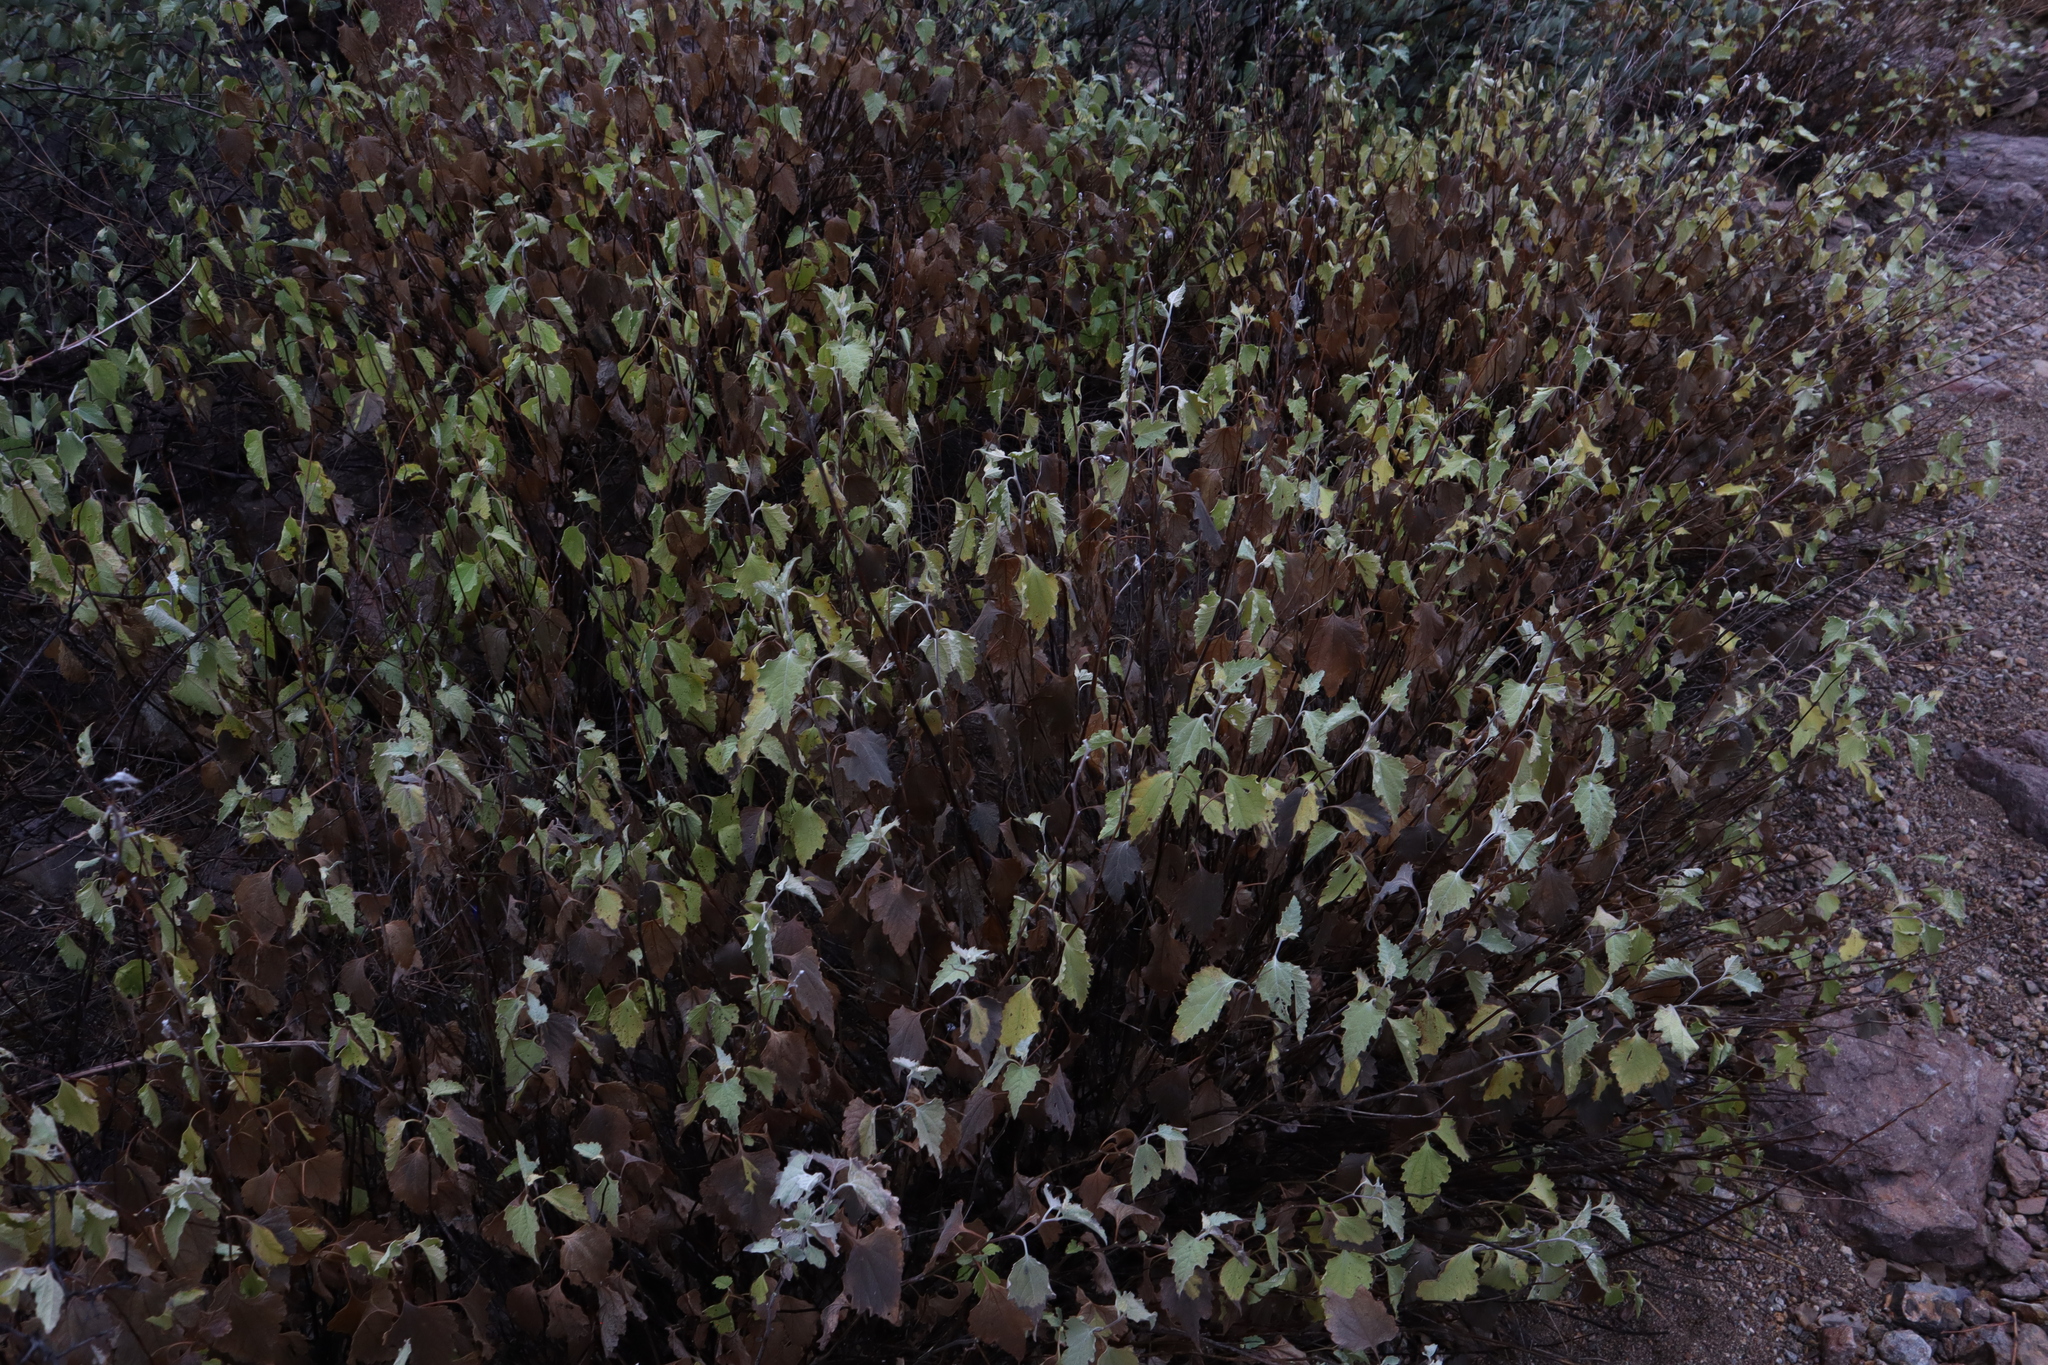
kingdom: Plantae
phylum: Tracheophyta
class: Magnoliopsida
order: Asterales
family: Asteraceae
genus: Ambrosia
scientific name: Ambrosia cordifolia
